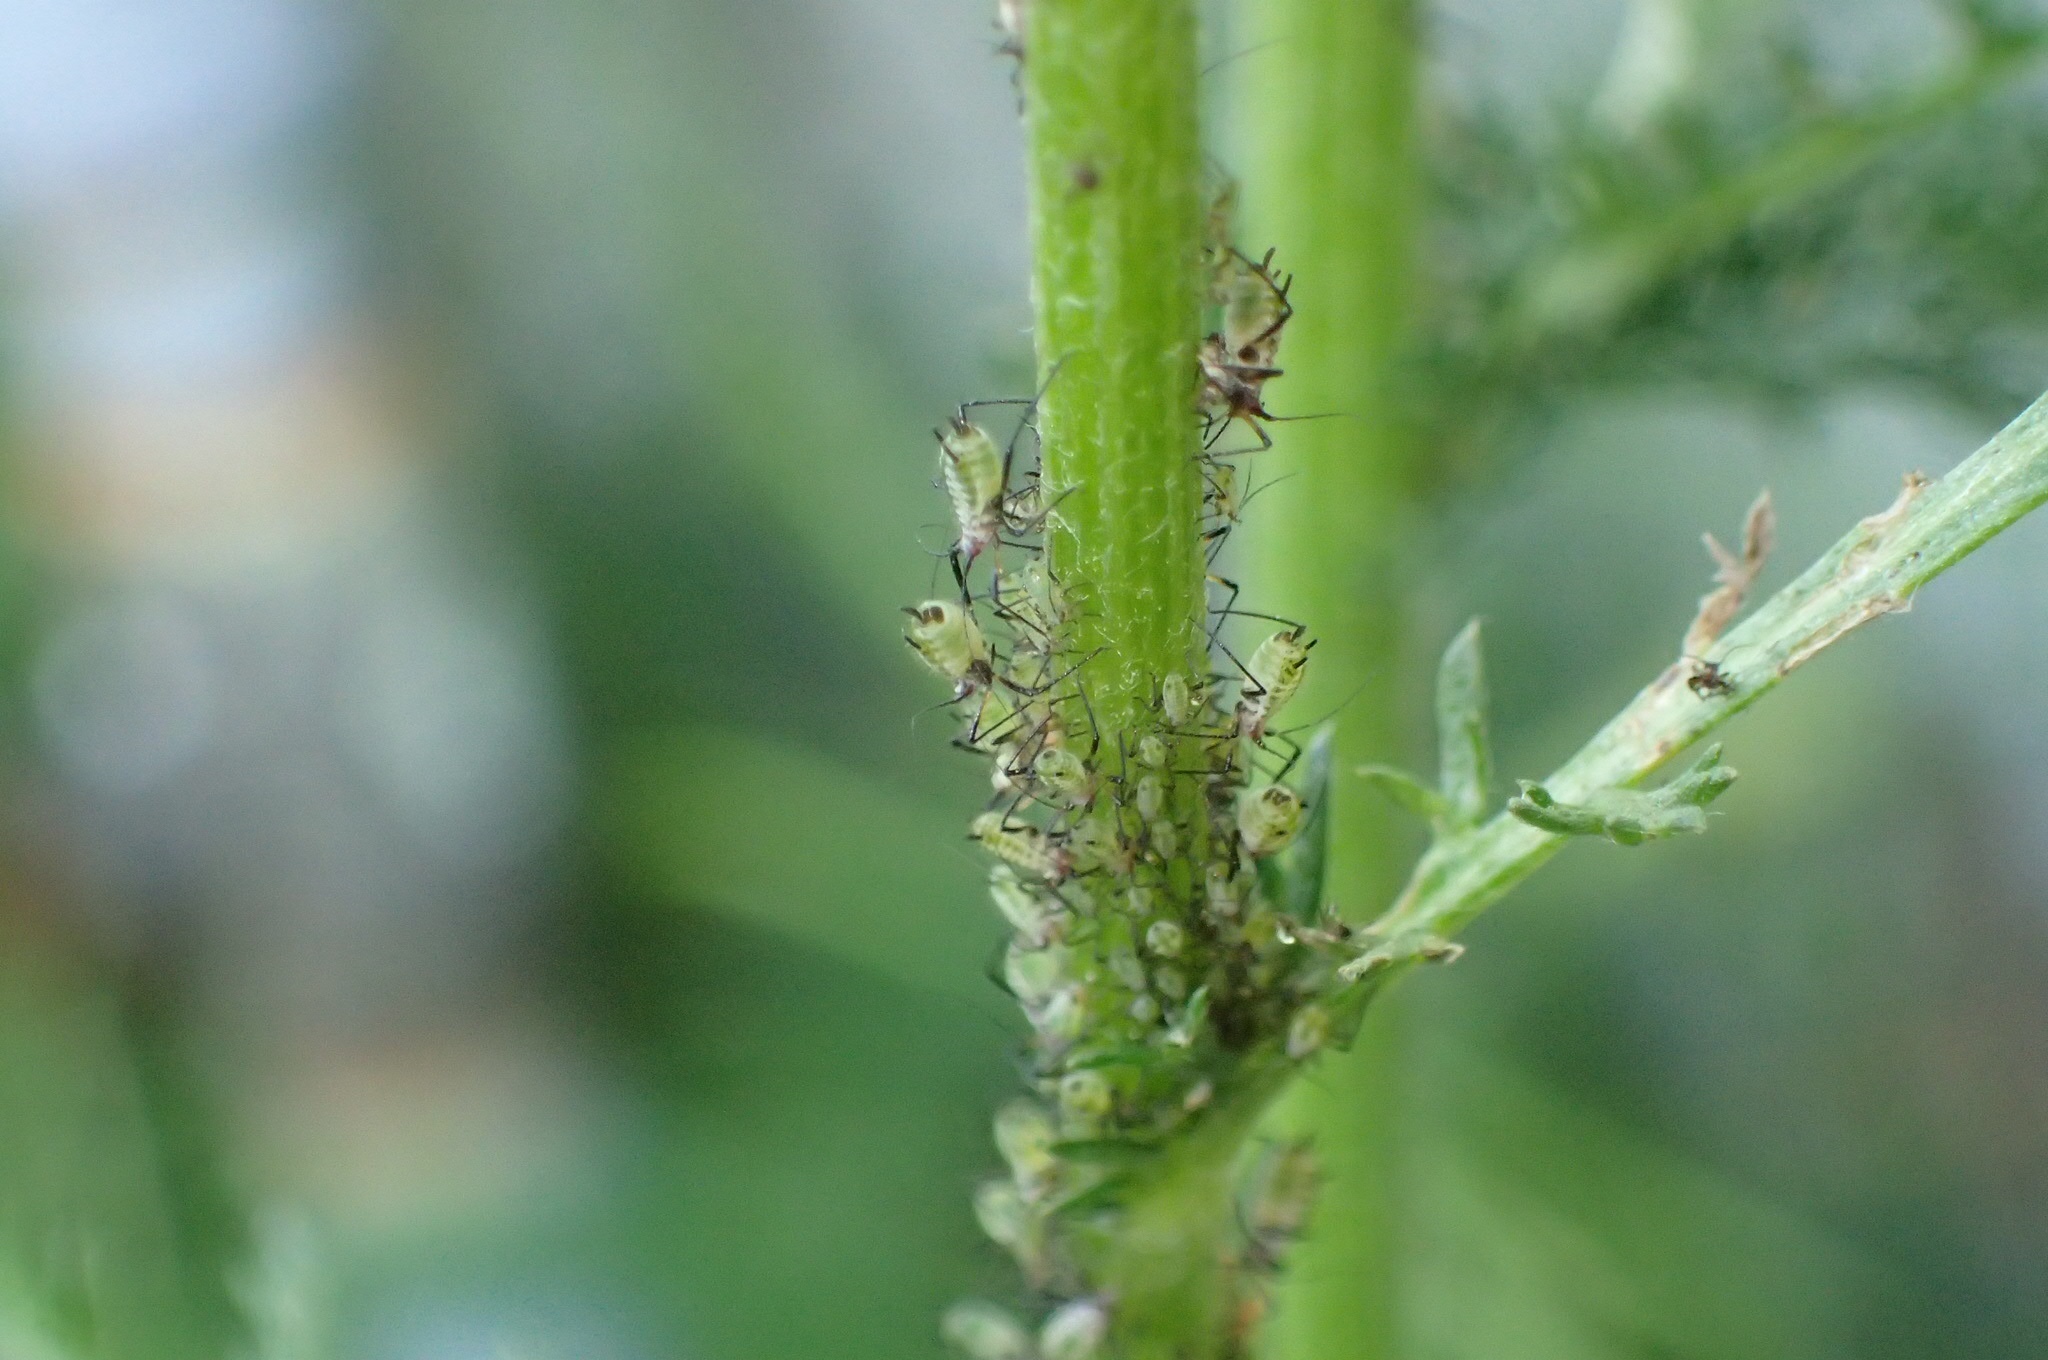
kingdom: Animalia
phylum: Arthropoda
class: Insecta
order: Hemiptera
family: Aphididae
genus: Macrosiphoniella
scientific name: Macrosiphoniella
